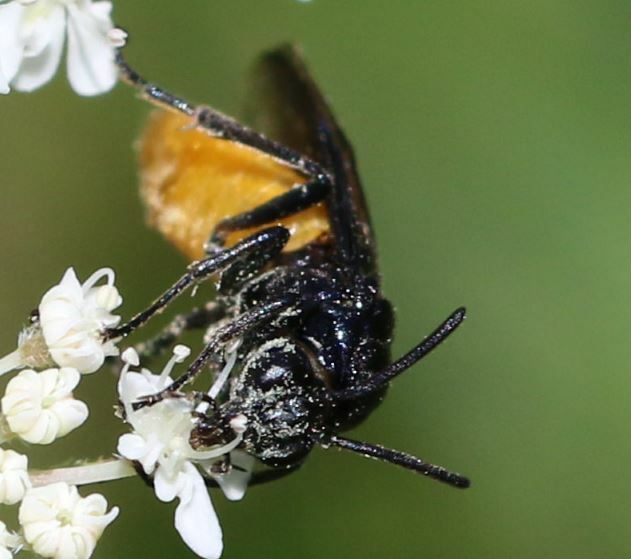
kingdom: Animalia
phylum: Arthropoda
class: Insecta
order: Hymenoptera
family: Argidae
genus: Arge
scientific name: Arge pagana
